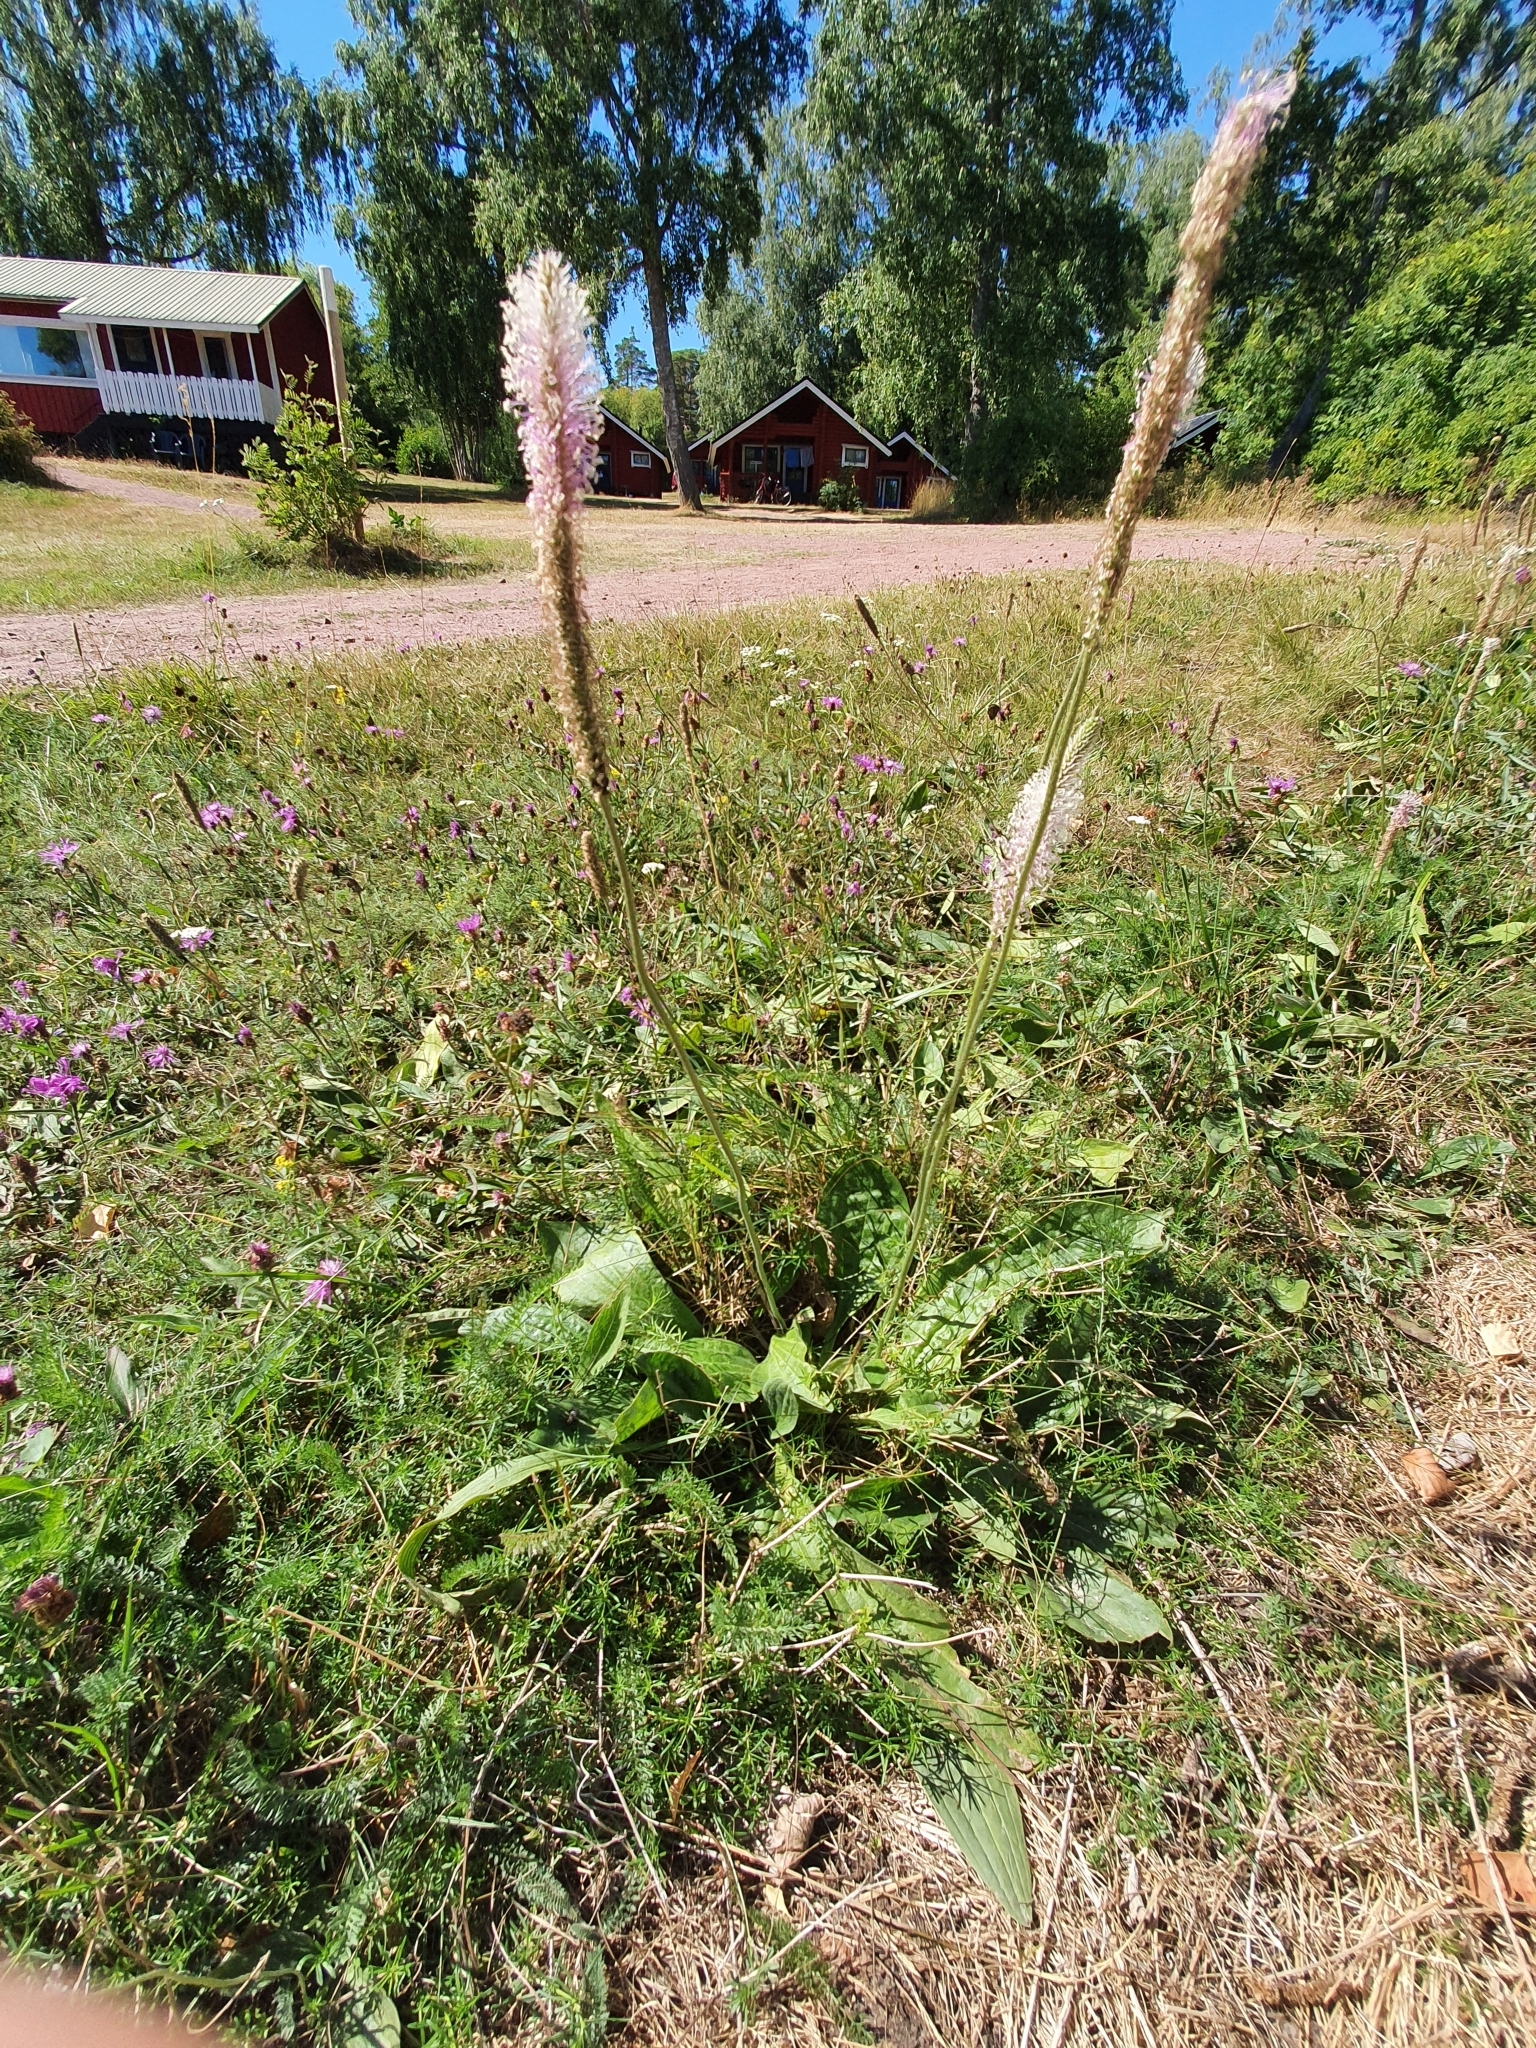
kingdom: Plantae
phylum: Tracheophyta
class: Magnoliopsida
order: Lamiales
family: Plantaginaceae
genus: Plantago
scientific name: Plantago media
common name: Hoary plantain
